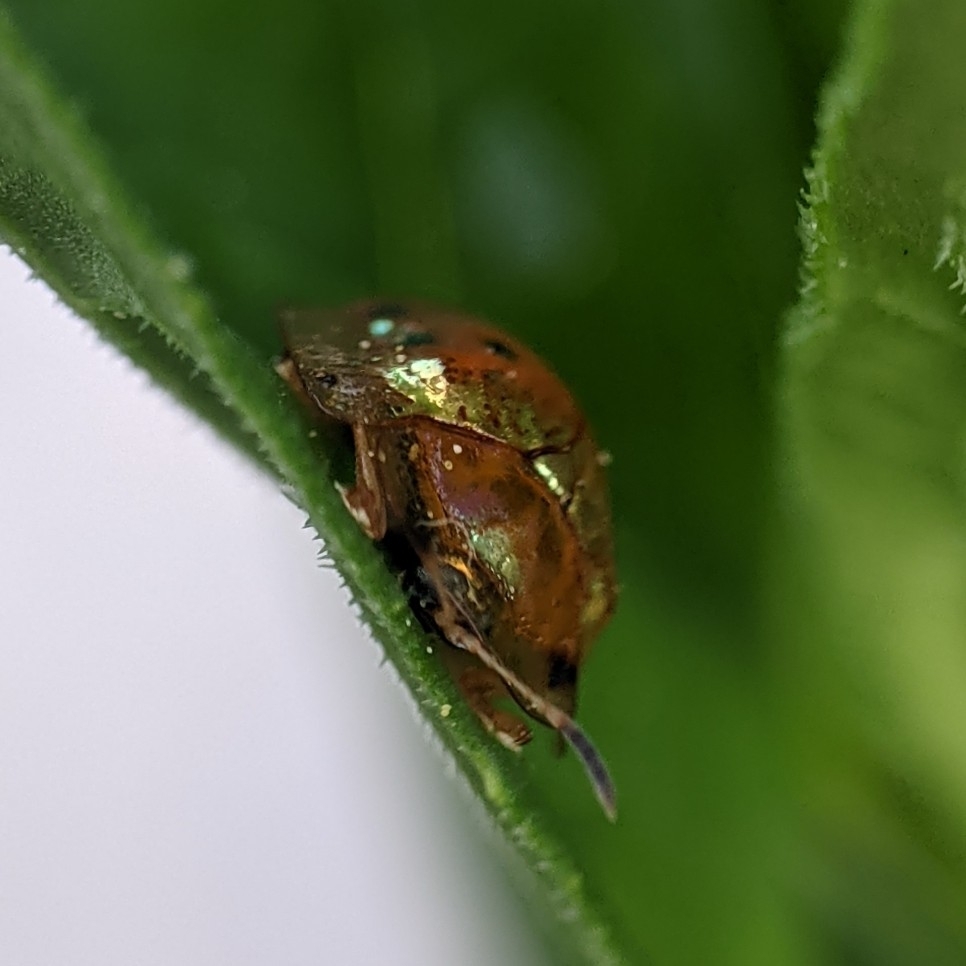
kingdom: Animalia
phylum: Arthropoda
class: Insecta
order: Coleoptera
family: Chrysomelidae
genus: Charidotella
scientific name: Charidotella sexpunctata
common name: Golden tortoise beetle
